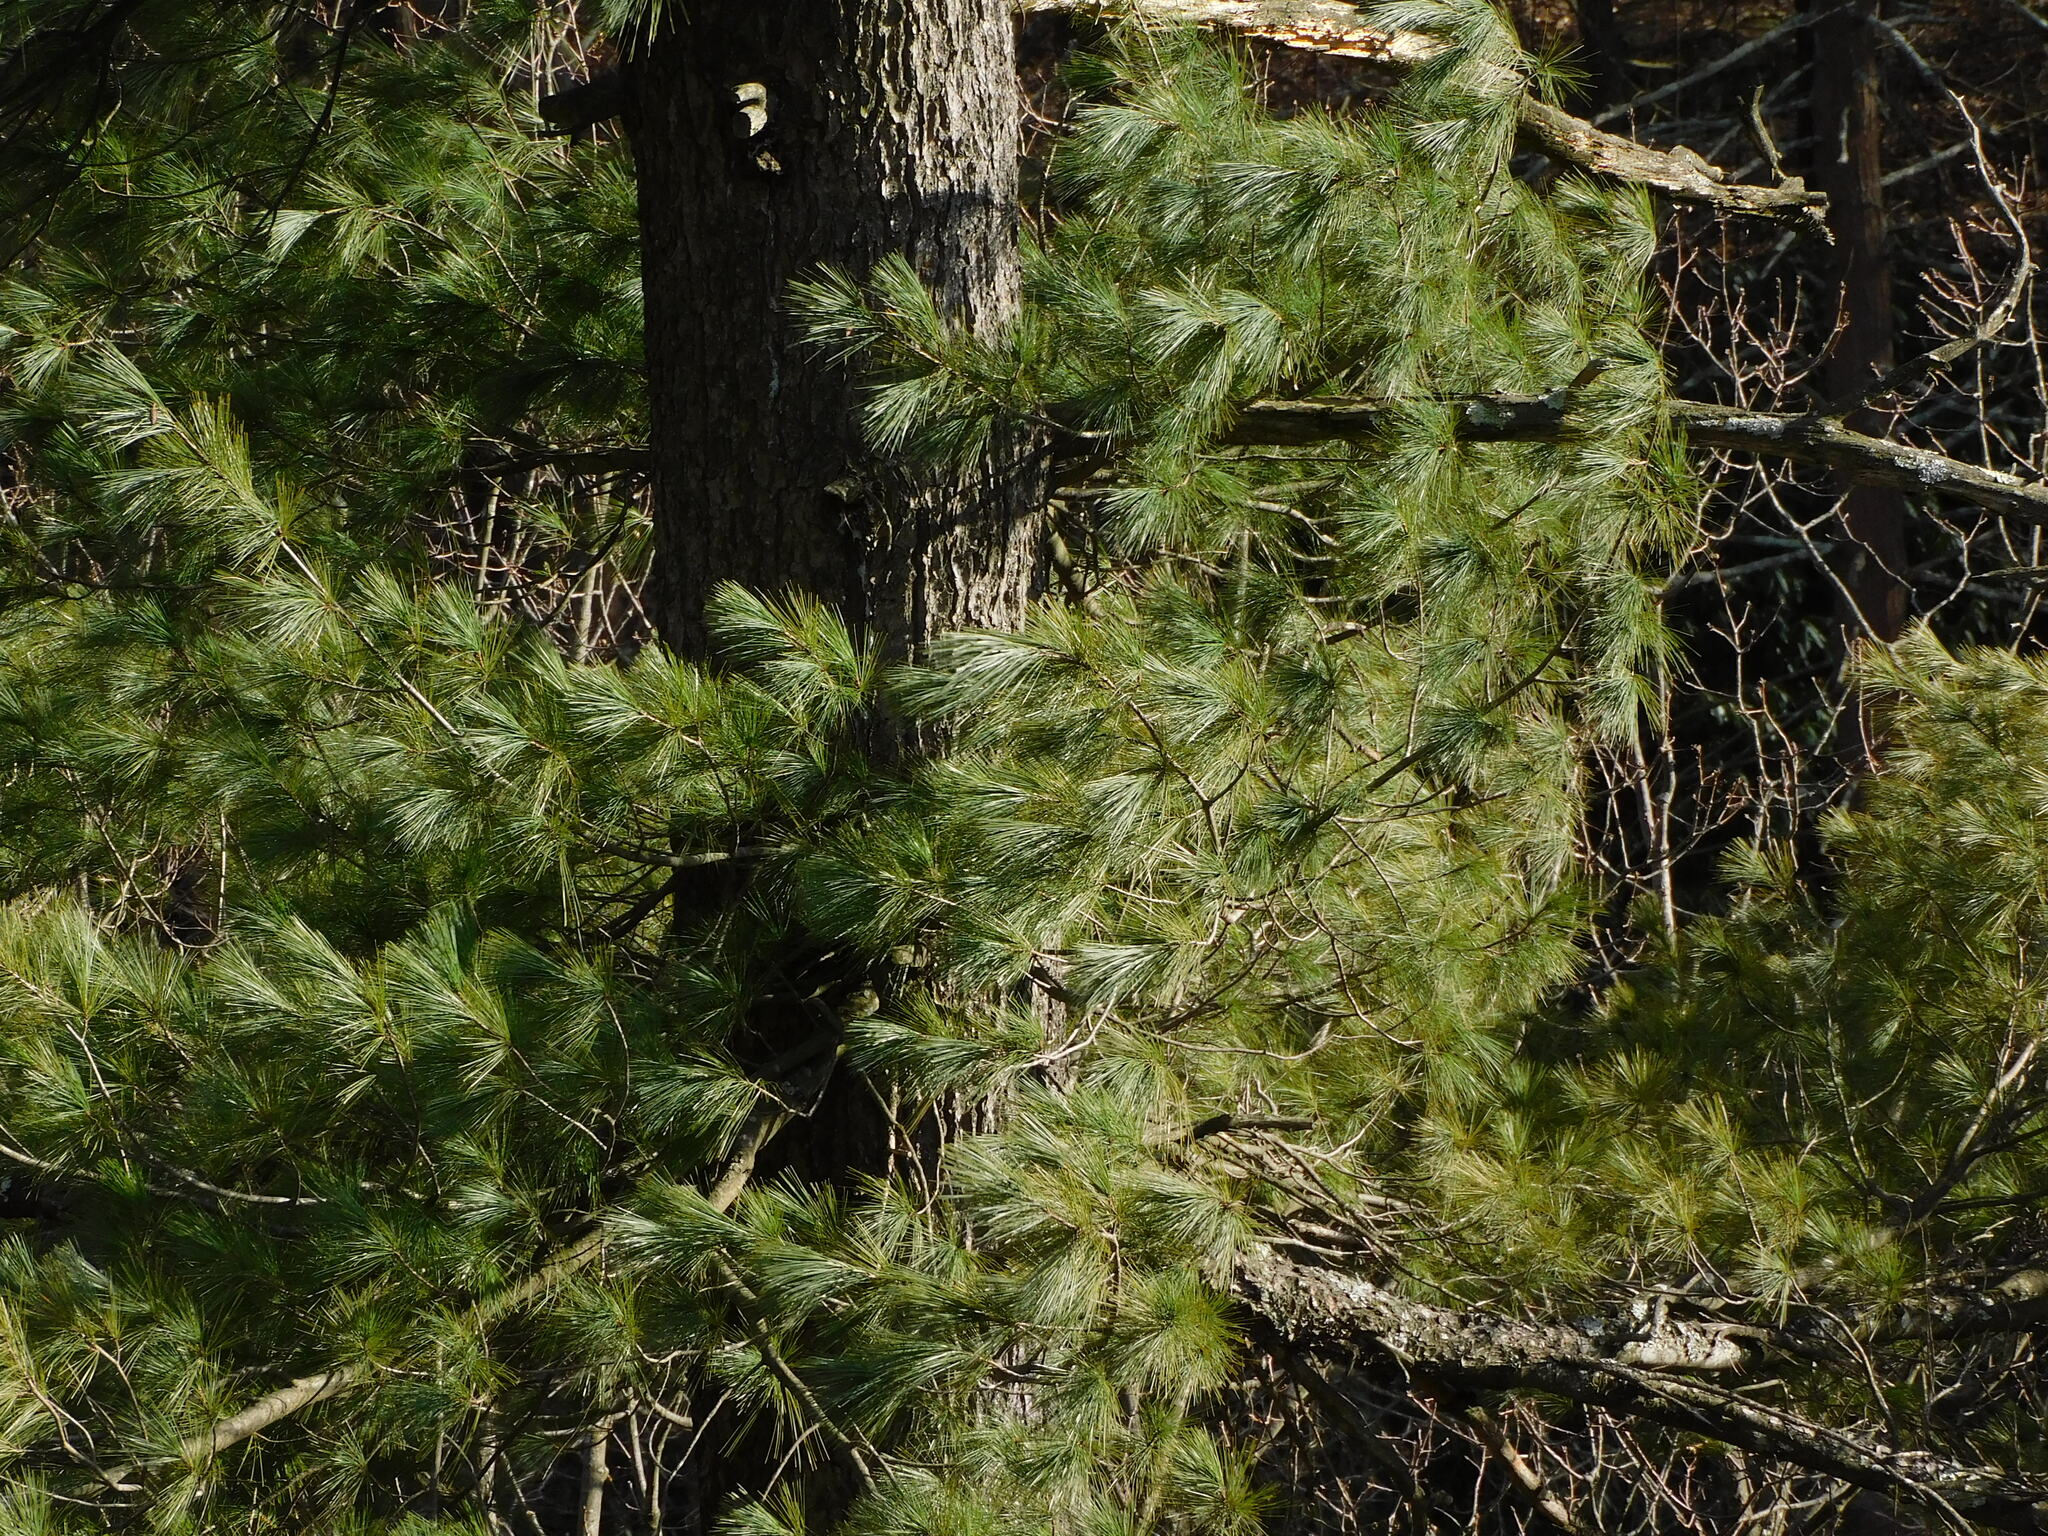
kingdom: Plantae
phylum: Tracheophyta
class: Pinopsida
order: Pinales
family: Pinaceae
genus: Pinus
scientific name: Pinus strobus
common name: Weymouth pine
